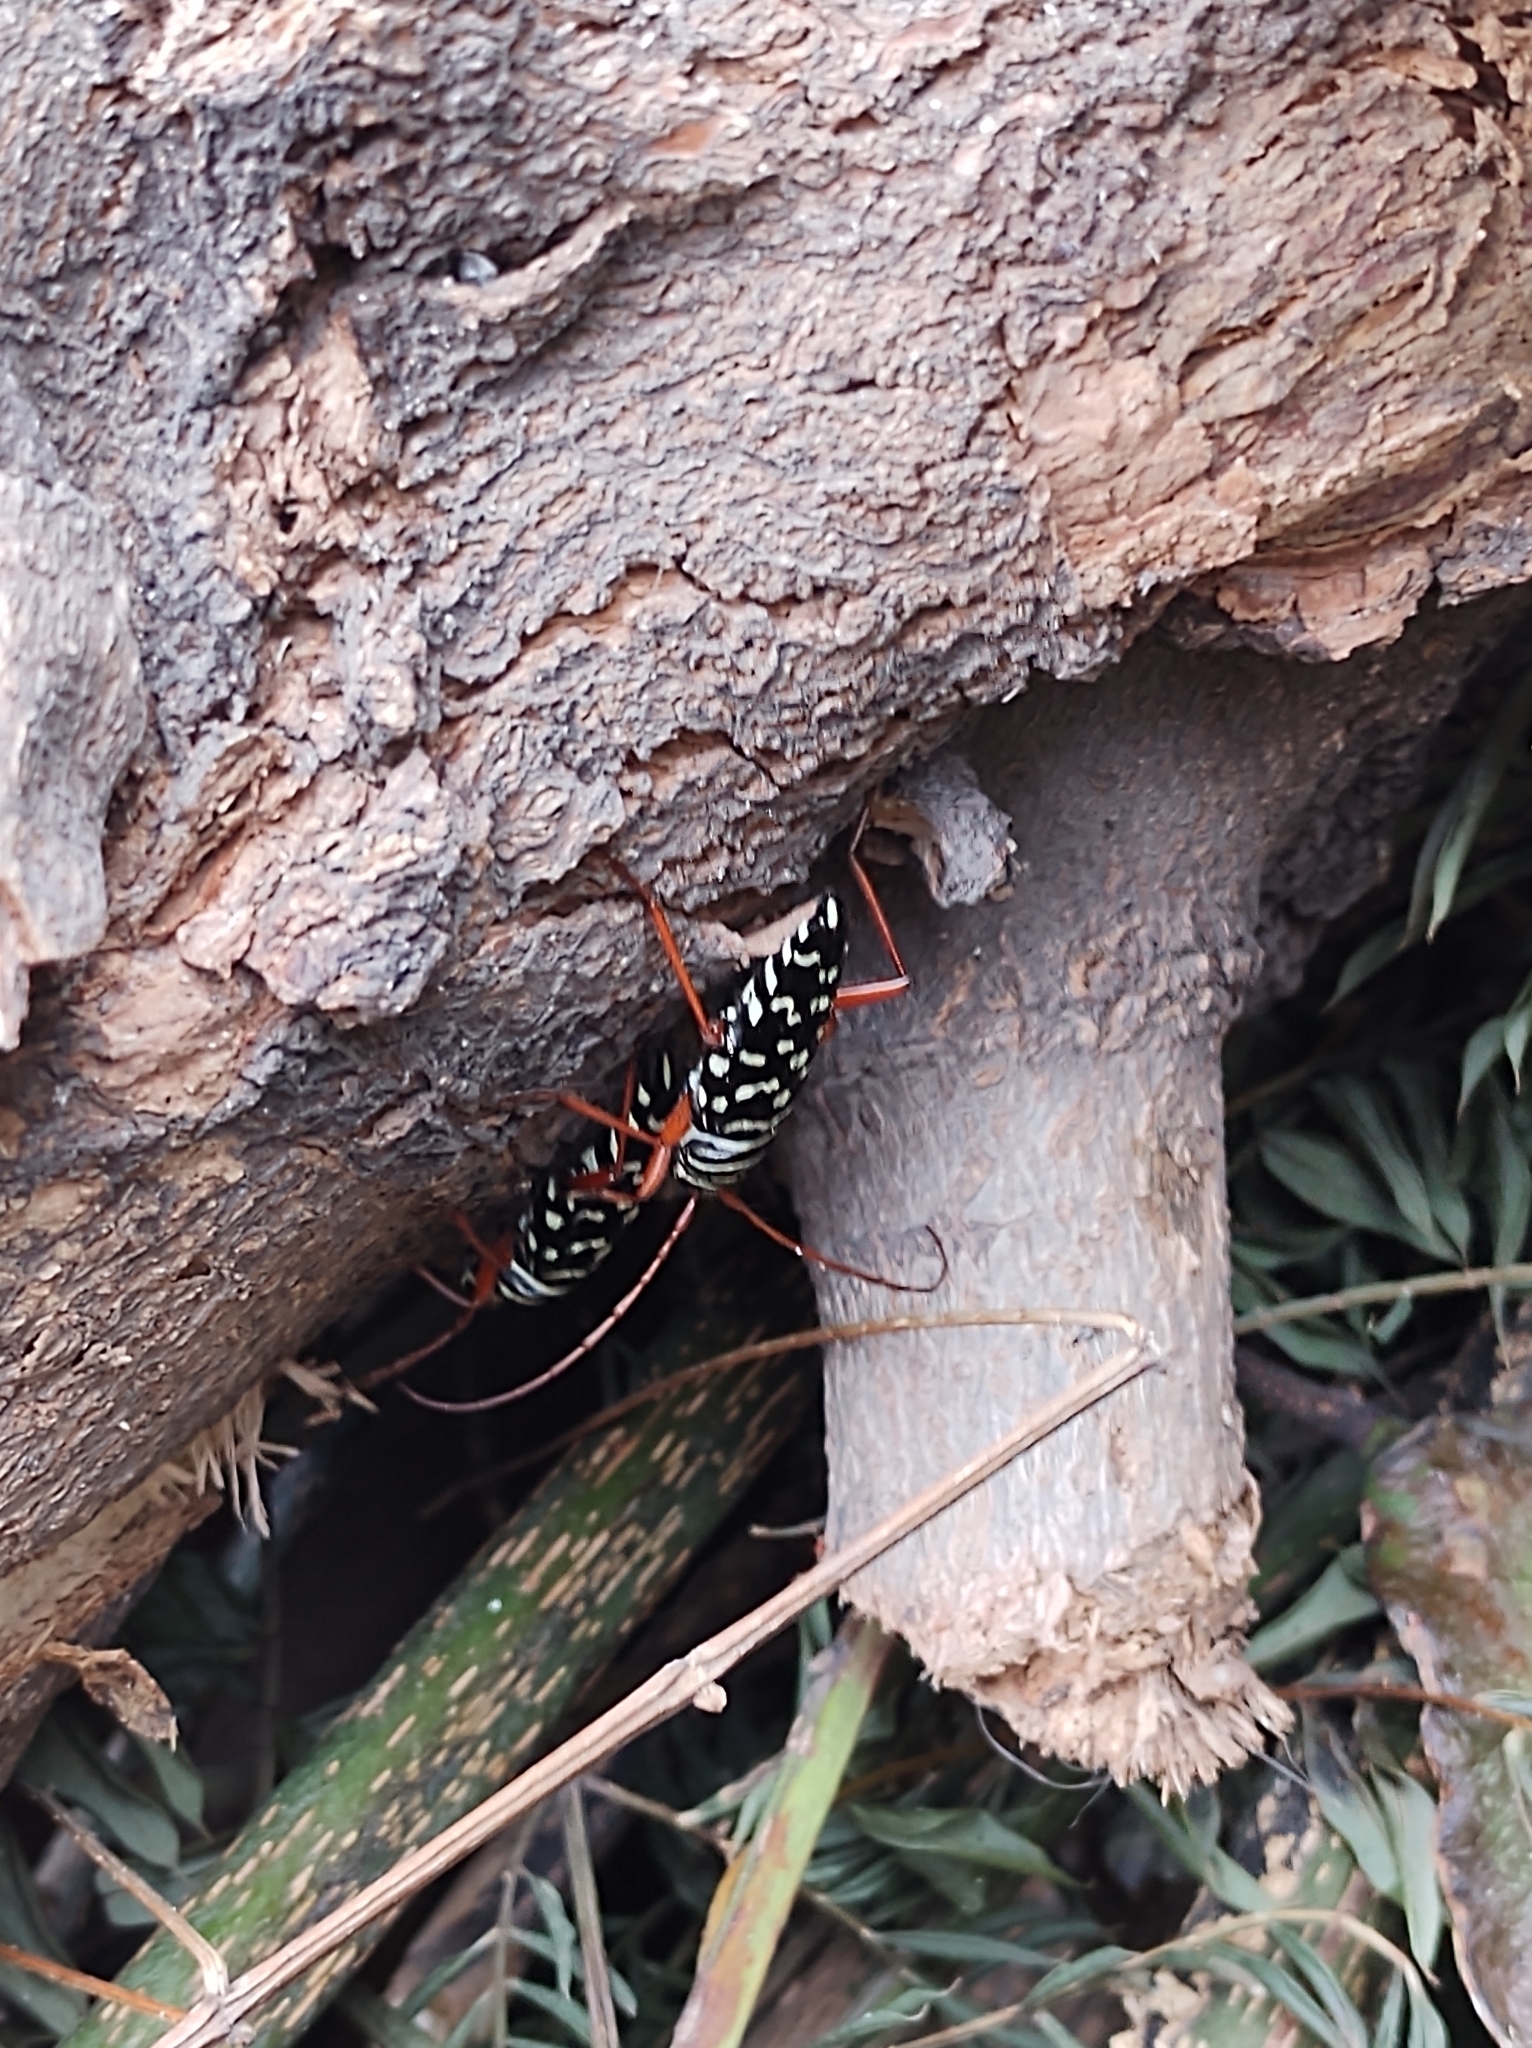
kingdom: Animalia
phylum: Arthropoda
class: Insecta
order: Coleoptera
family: Cerambycidae
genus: Placosternus
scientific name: Placosternus erythropus
